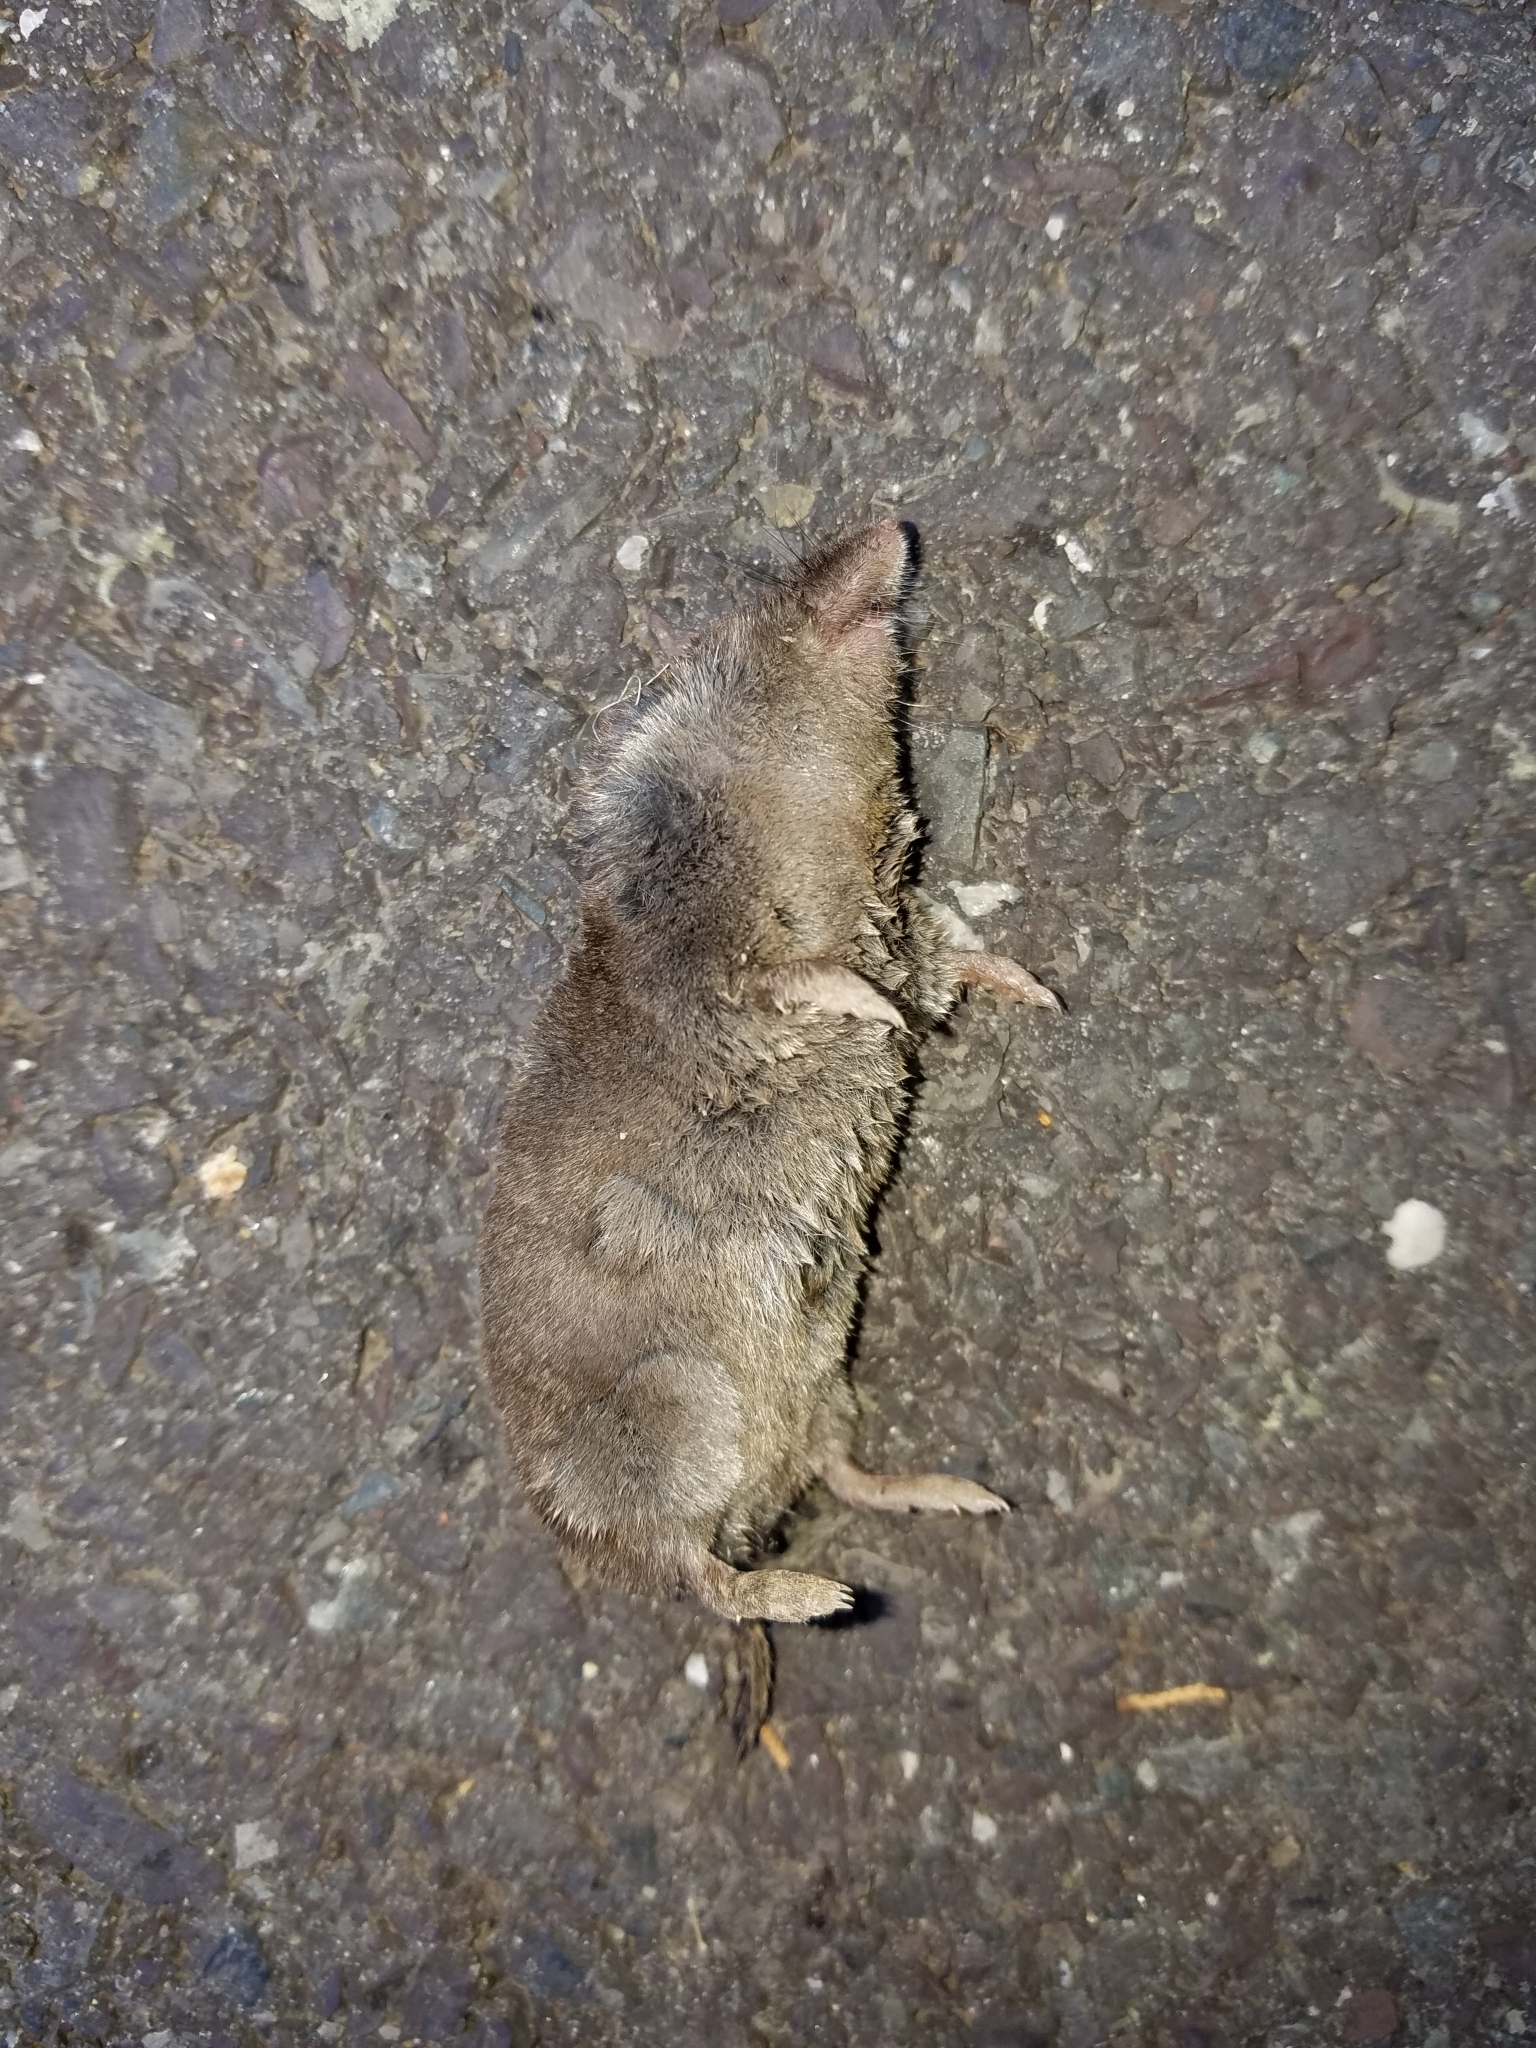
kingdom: Animalia
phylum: Chordata
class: Mammalia
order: Soricomorpha
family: Soricidae
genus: Blarina
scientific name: Blarina brevicauda
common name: Northern short-tailed shrew
